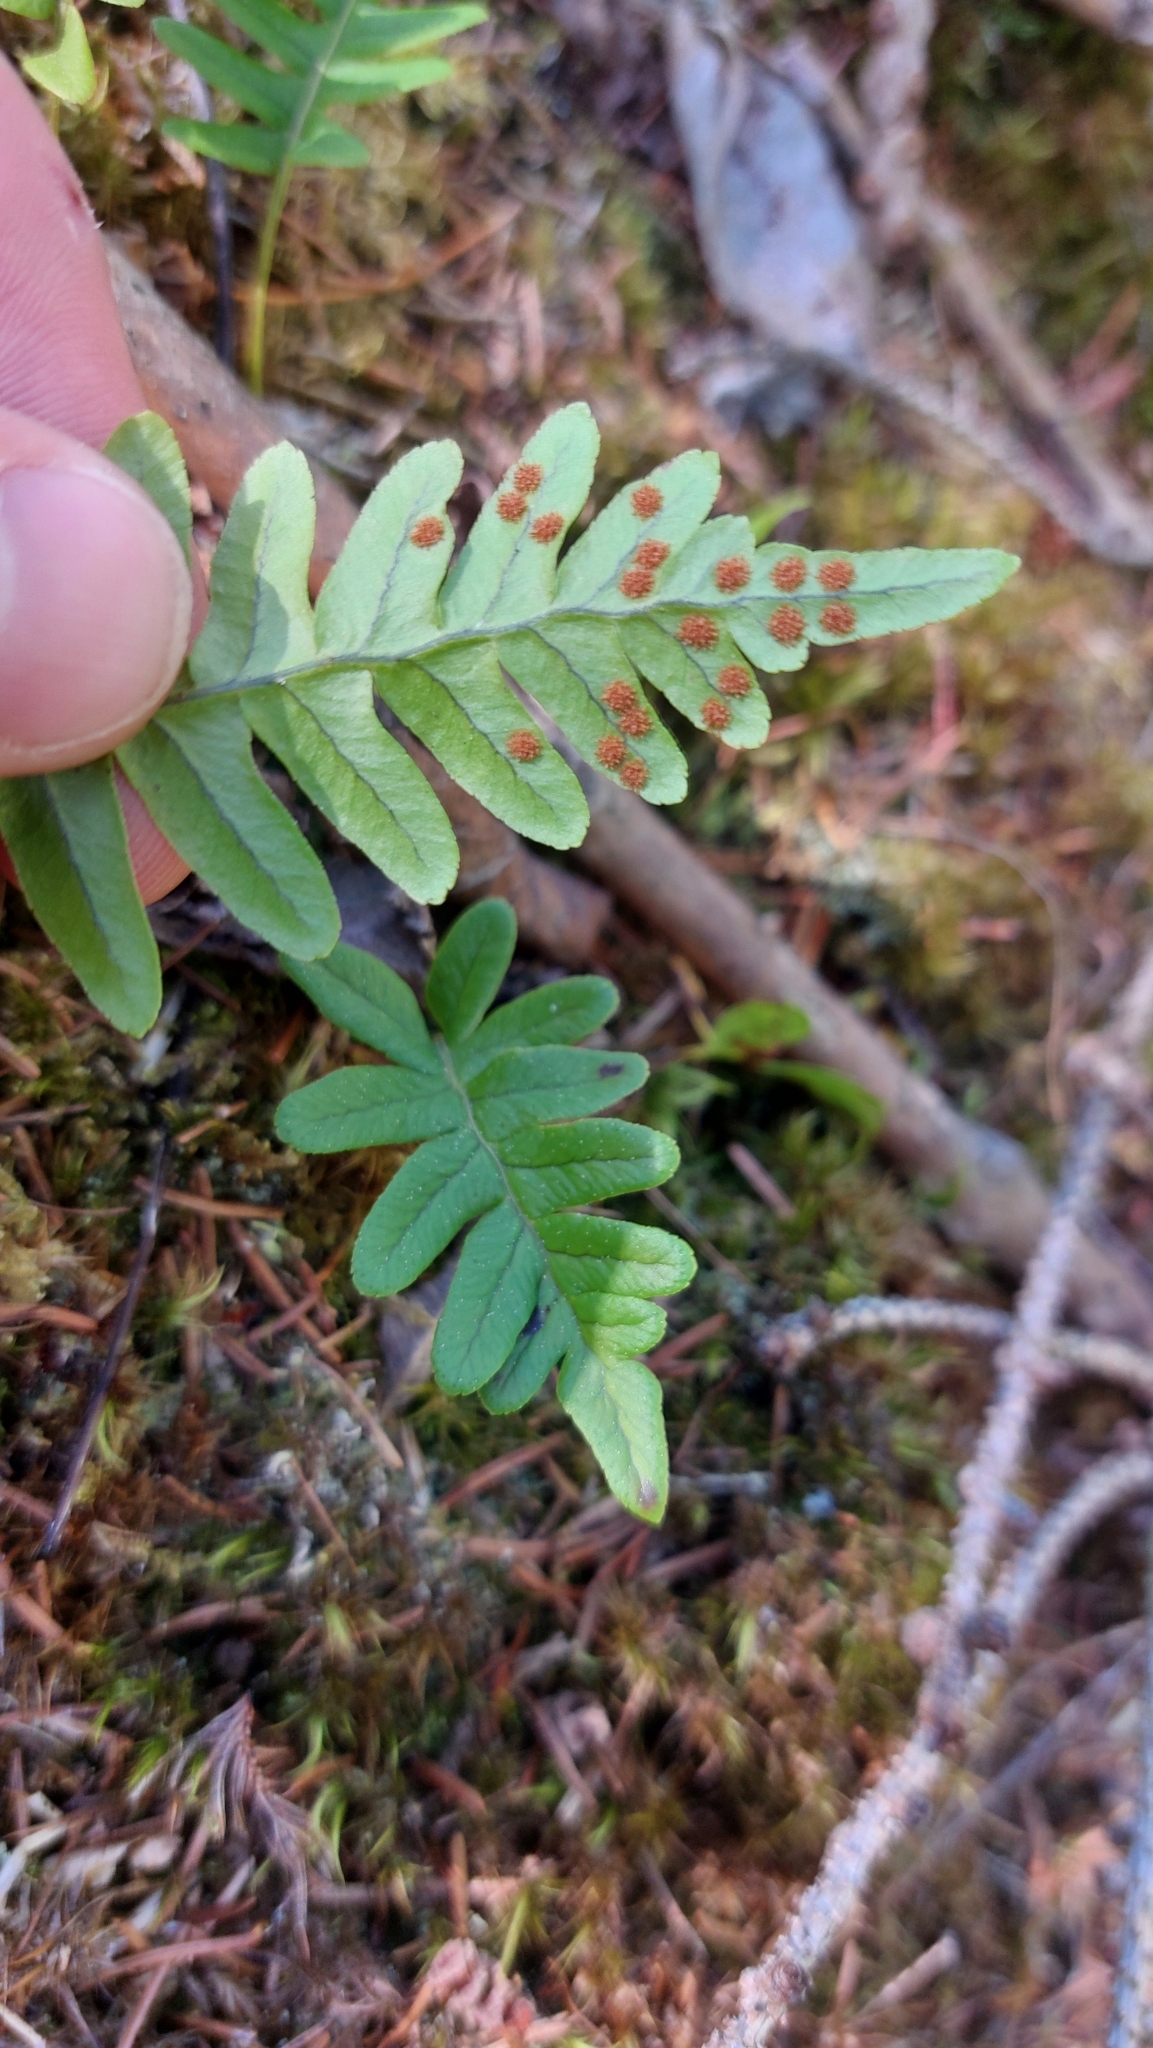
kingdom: Plantae
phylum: Tracheophyta
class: Polypodiopsida
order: Polypodiales
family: Polypodiaceae
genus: Polypodium
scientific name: Polypodium vulgare
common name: Common polypody
